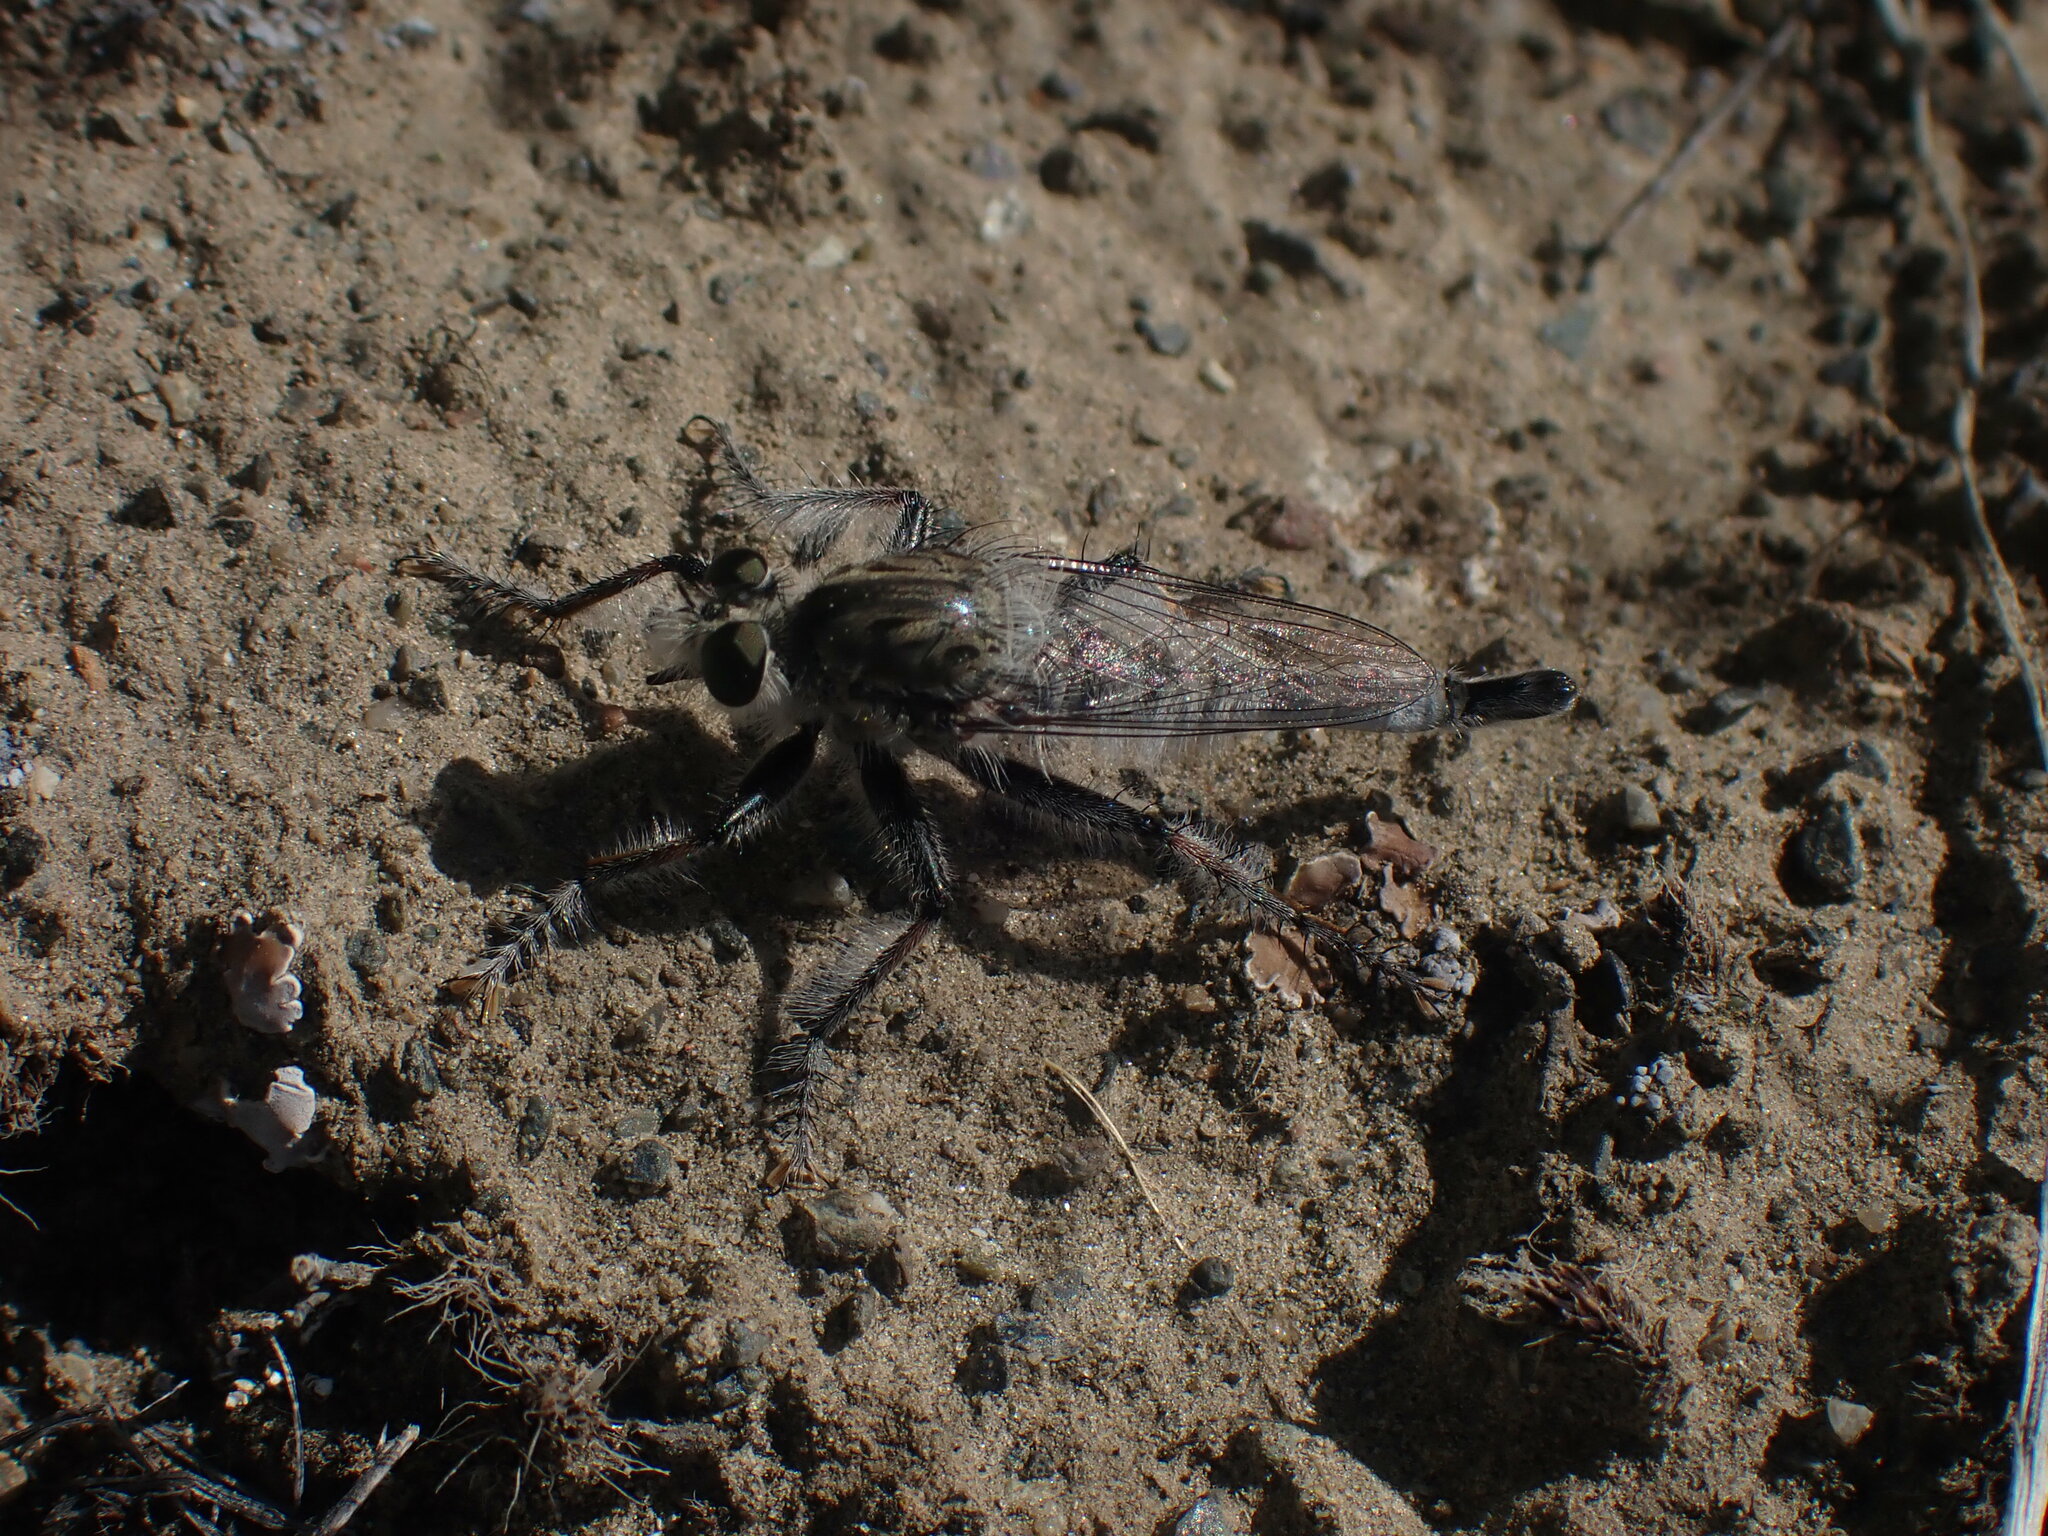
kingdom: Animalia
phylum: Arthropoda
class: Insecta
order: Diptera
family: Asilidae
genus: Efferia
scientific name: Efferia benedicti
